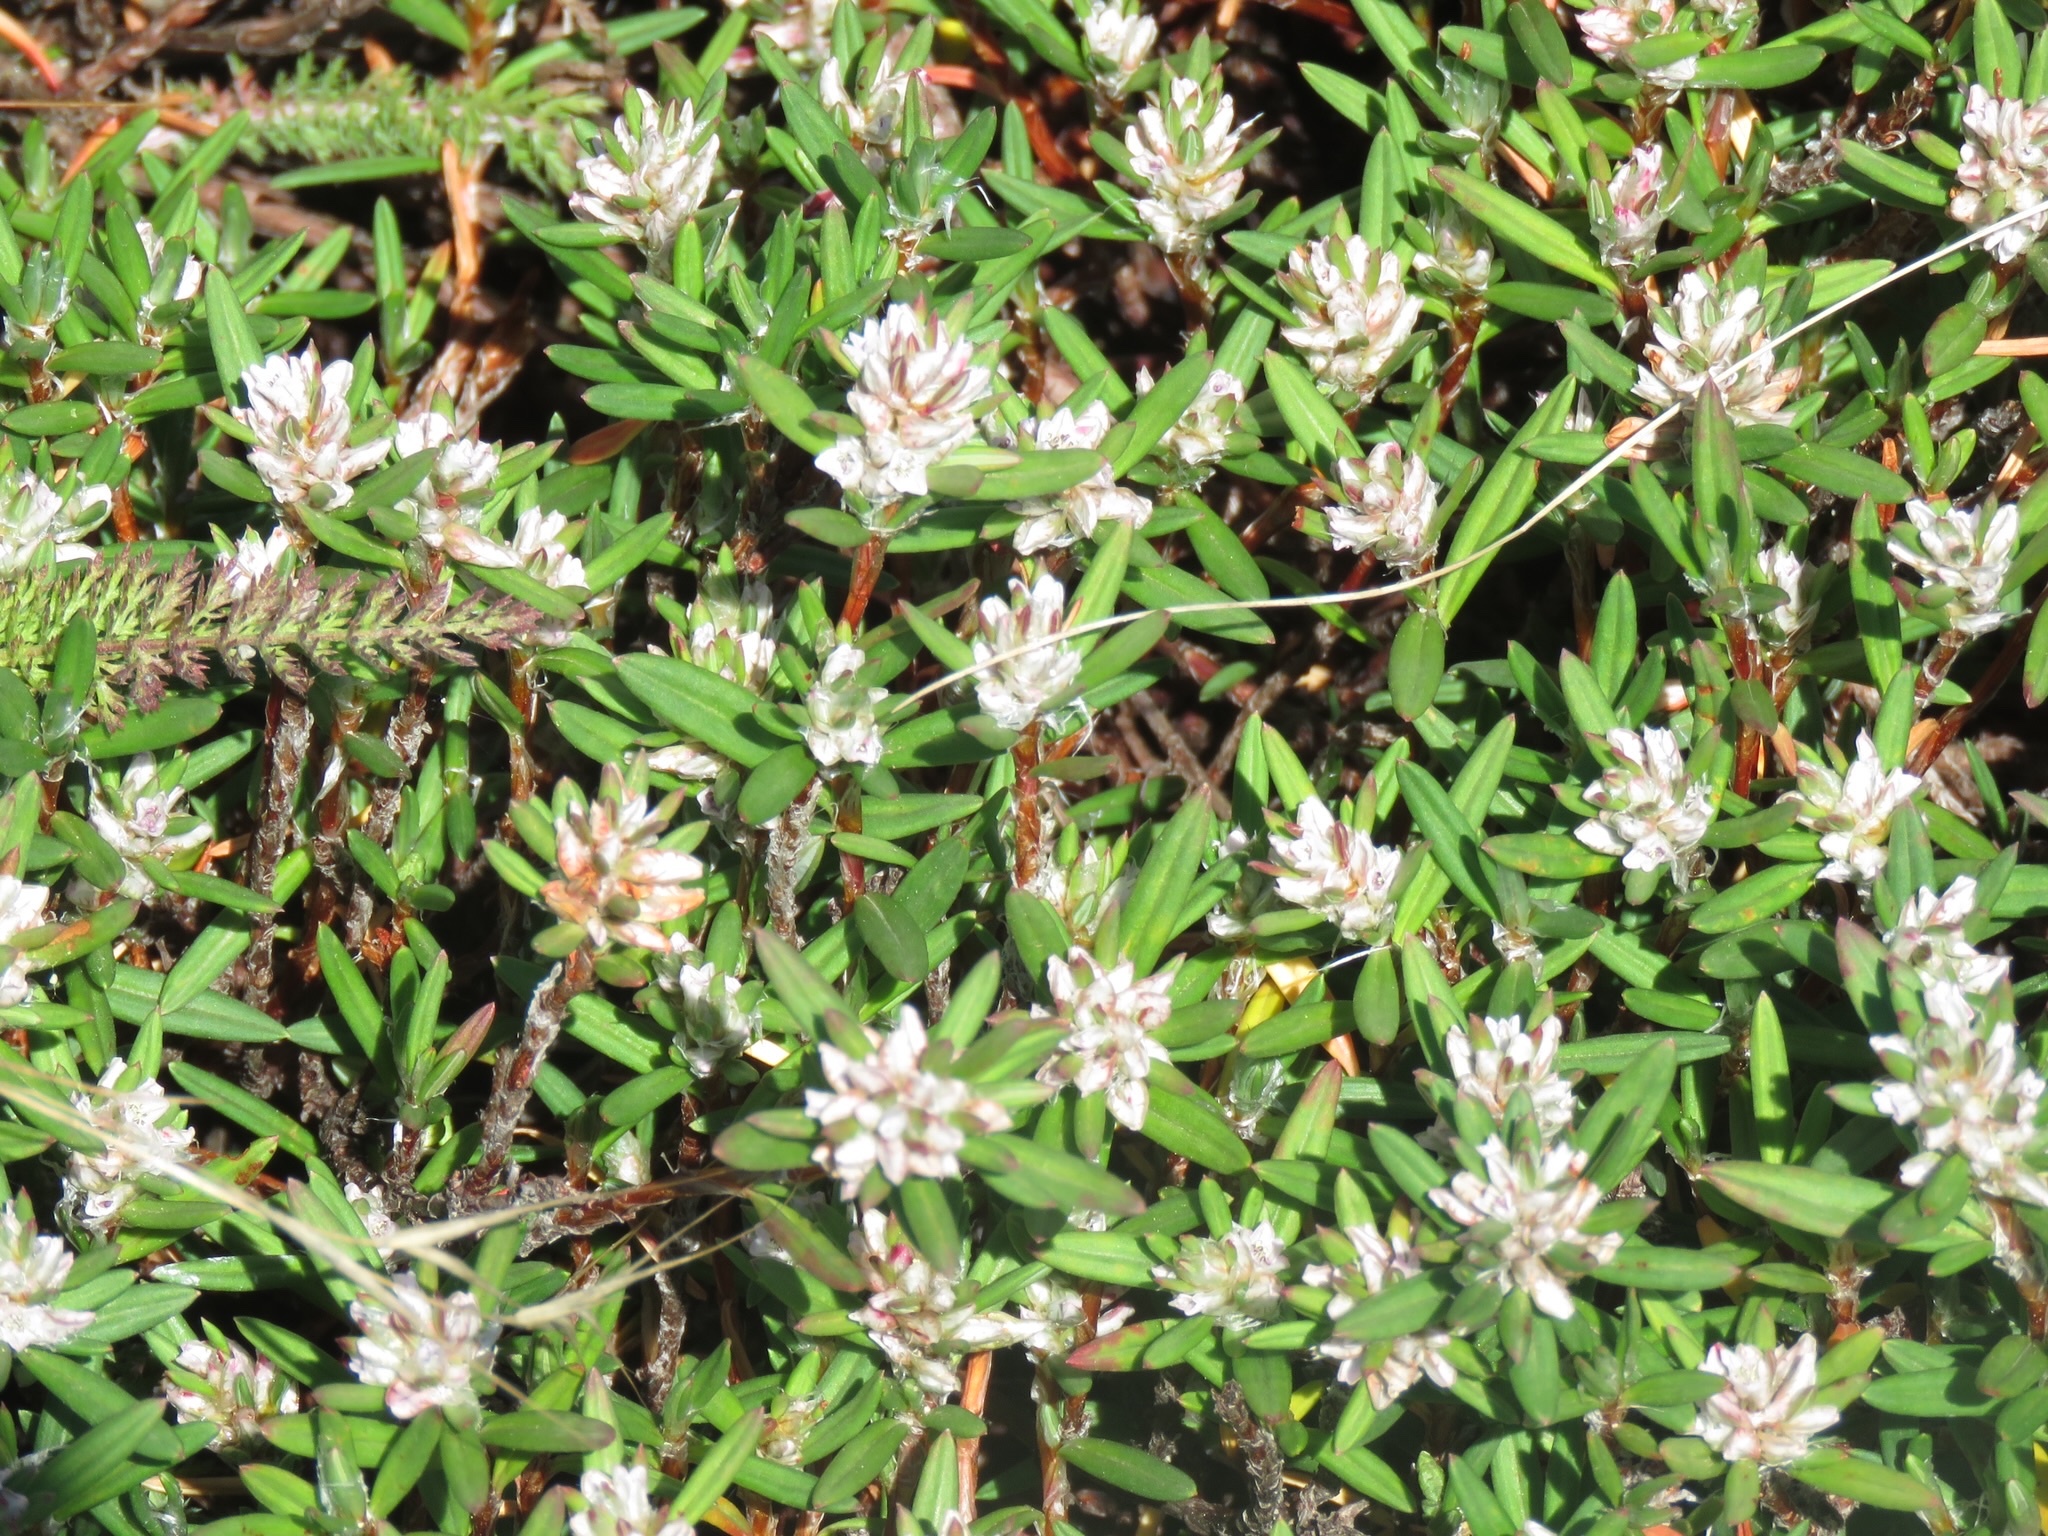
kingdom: Plantae
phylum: Tracheophyta
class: Magnoliopsida
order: Caryophyllales
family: Polygonaceae
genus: Polygonum
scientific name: Polygonum paronychia
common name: Dune knotweed
